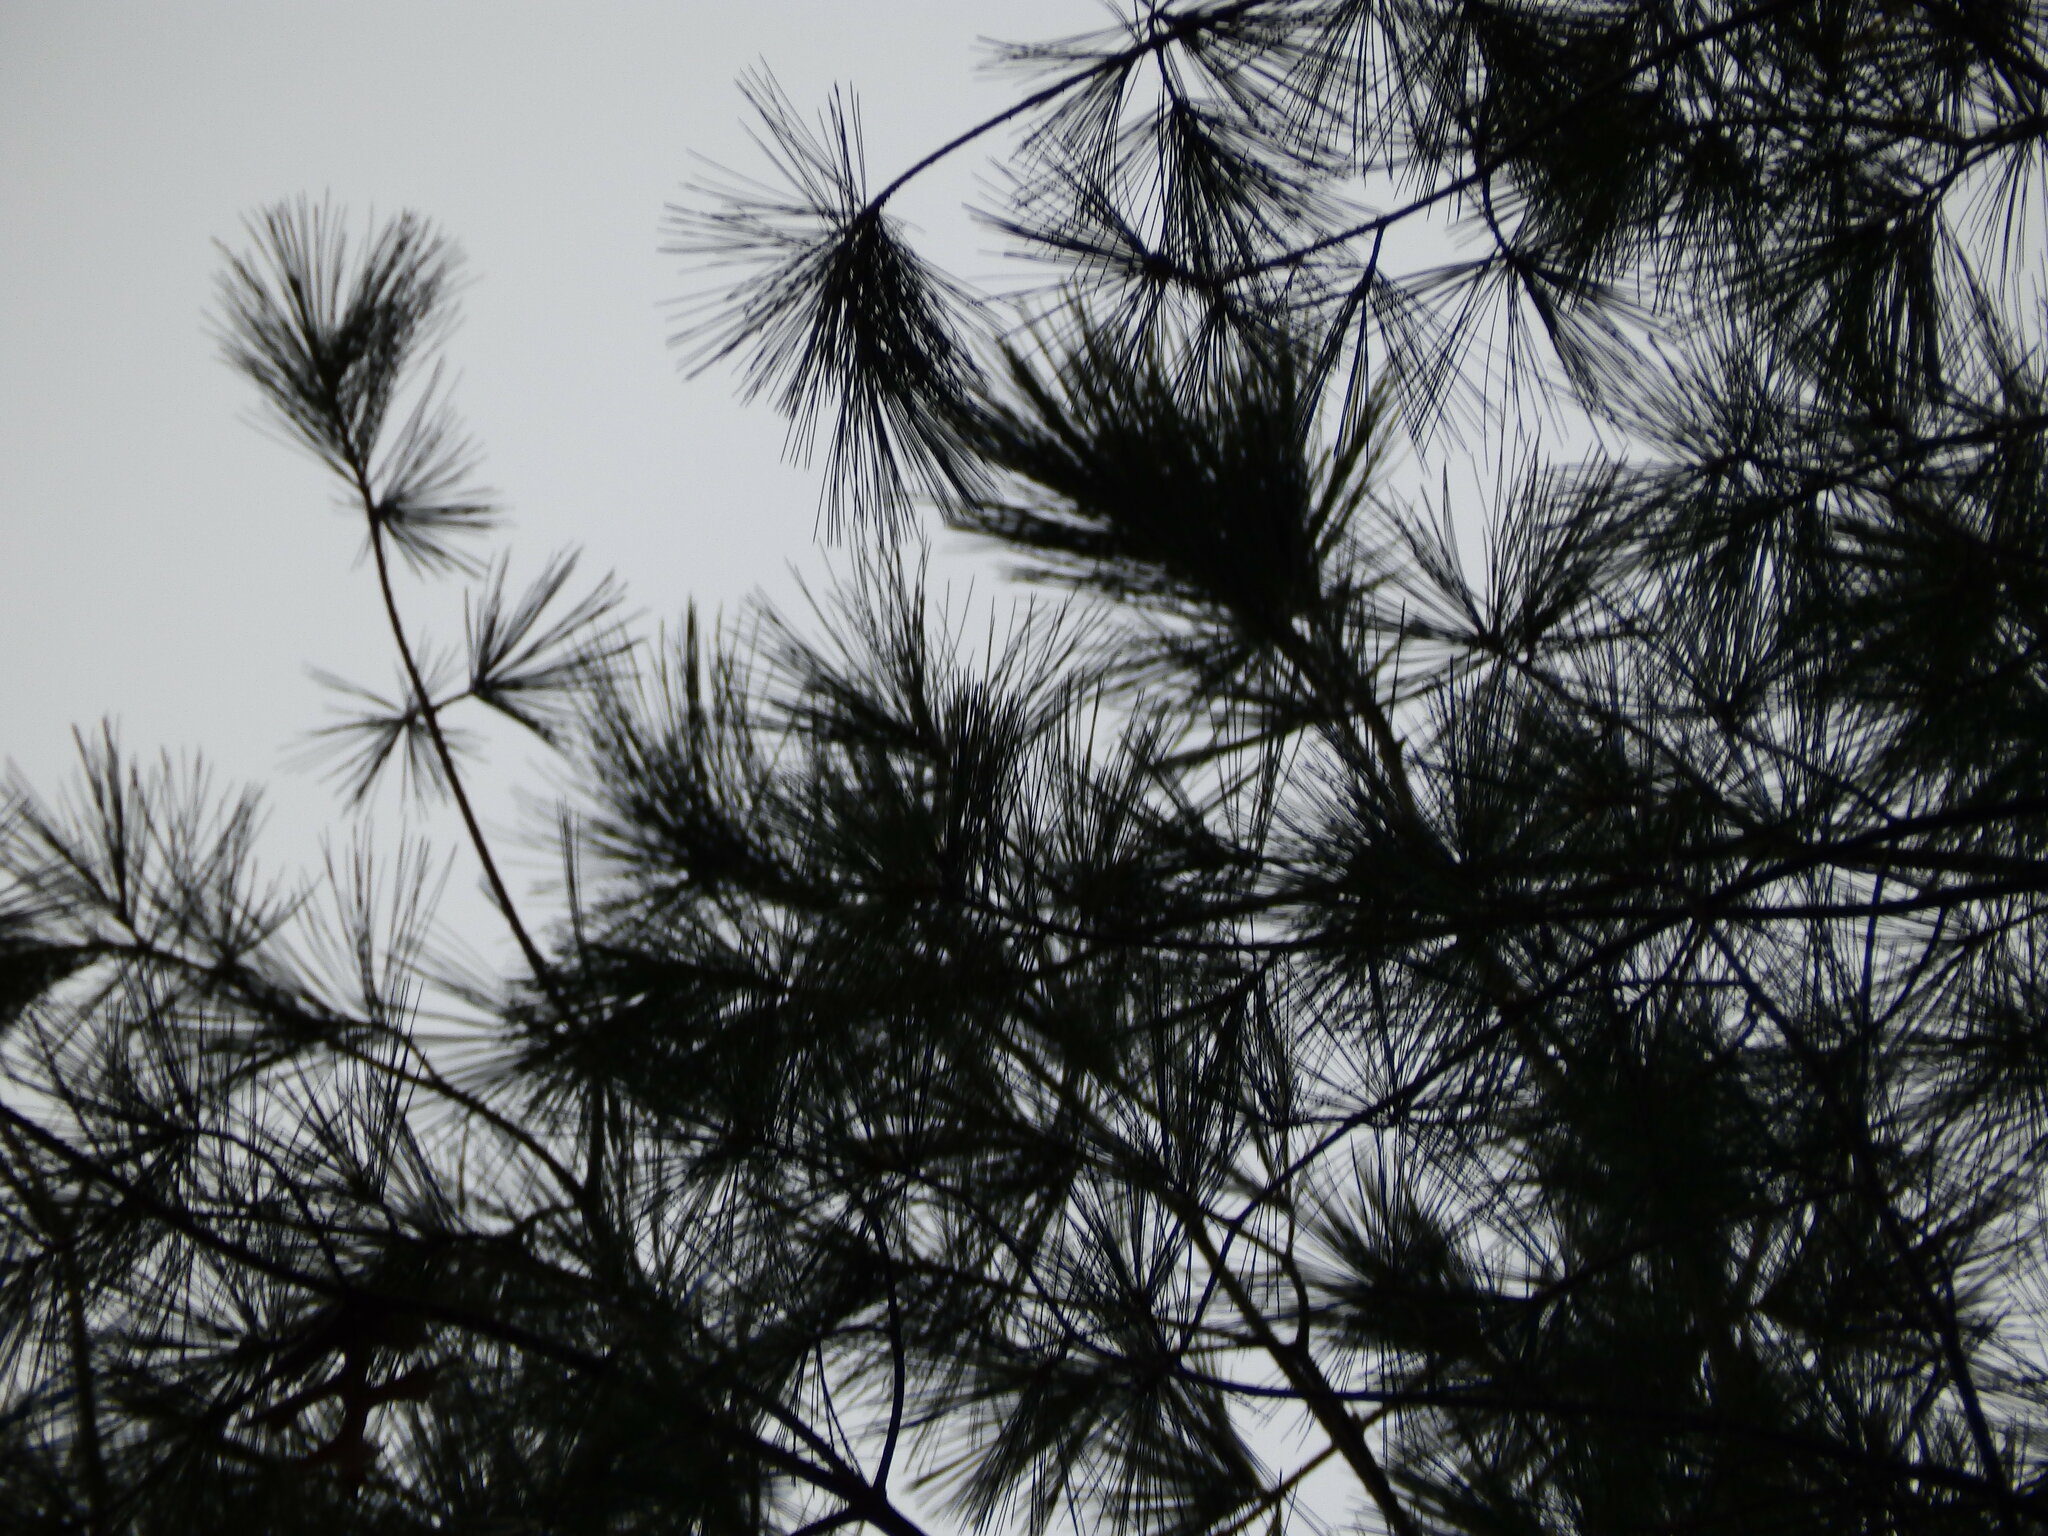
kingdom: Plantae
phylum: Tracheophyta
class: Pinopsida
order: Pinales
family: Pinaceae
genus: Pinus
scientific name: Pinus strobus
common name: Weymouth pine
